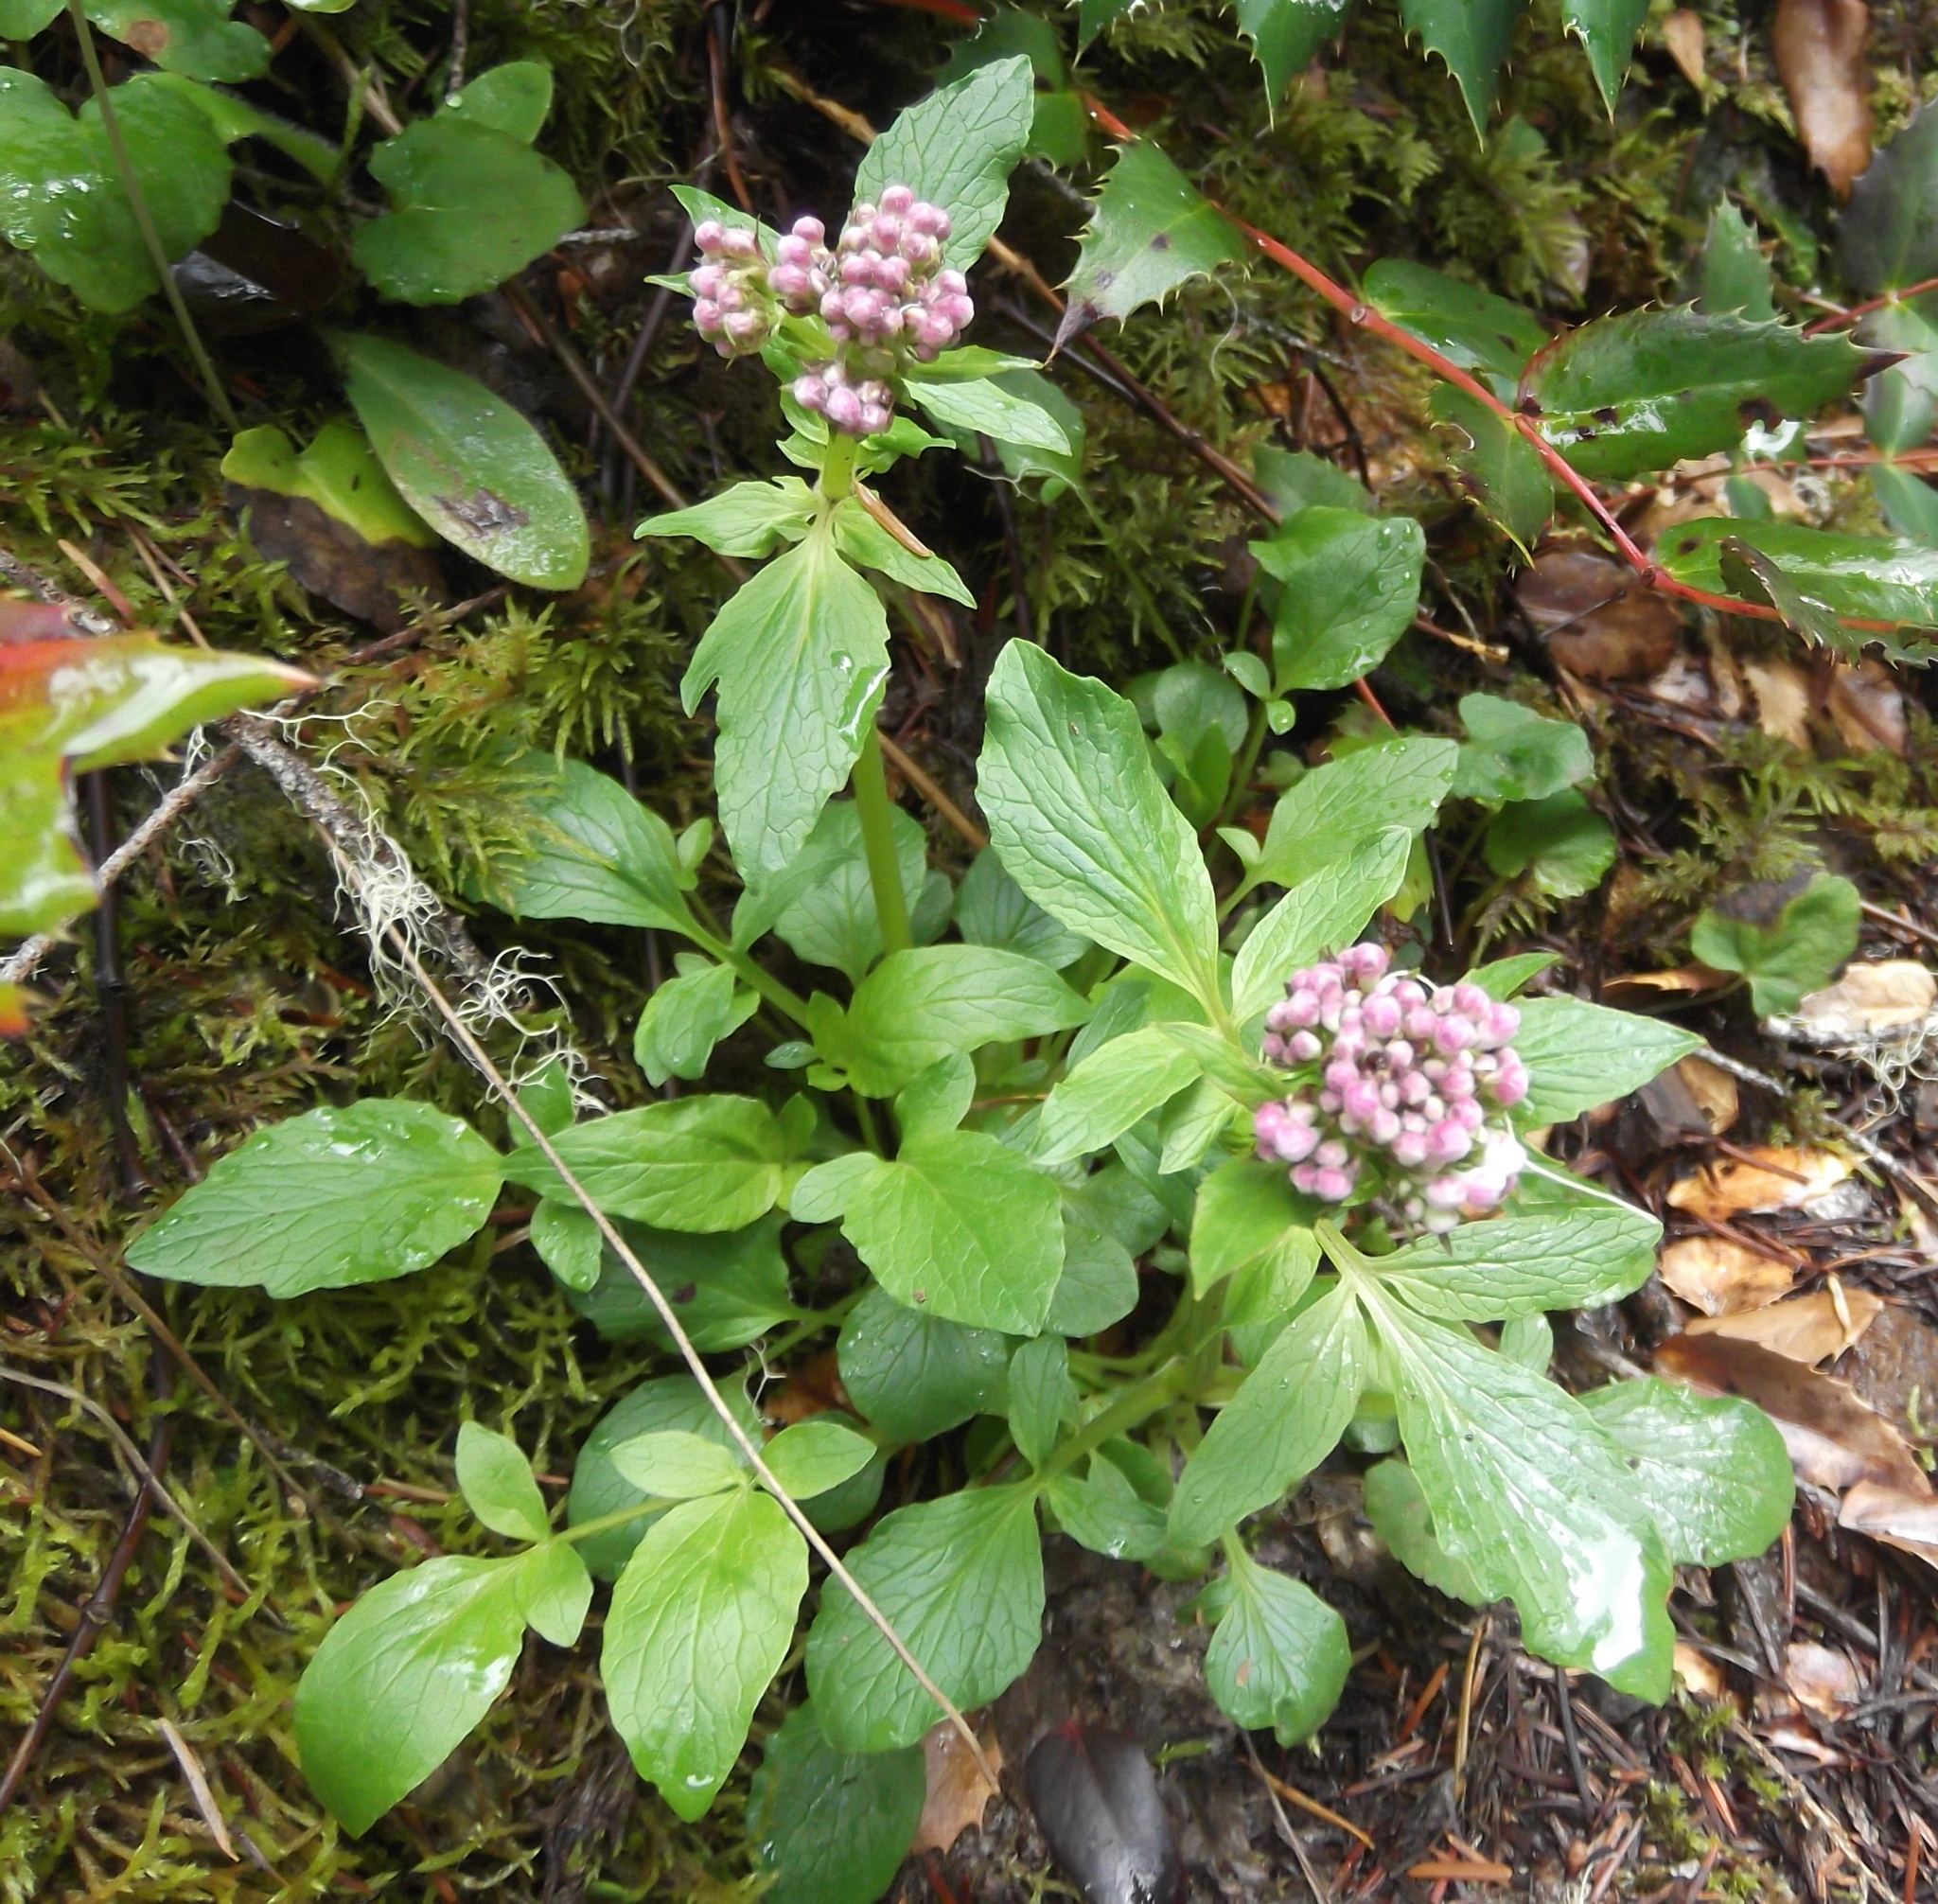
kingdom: Plantae
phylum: Tracheophyta
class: Magnoliopsida
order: Dipsacales
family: Caprifoliaceae
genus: Valeriana
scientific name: Valeriana scouleri
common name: Scouler's valerian
